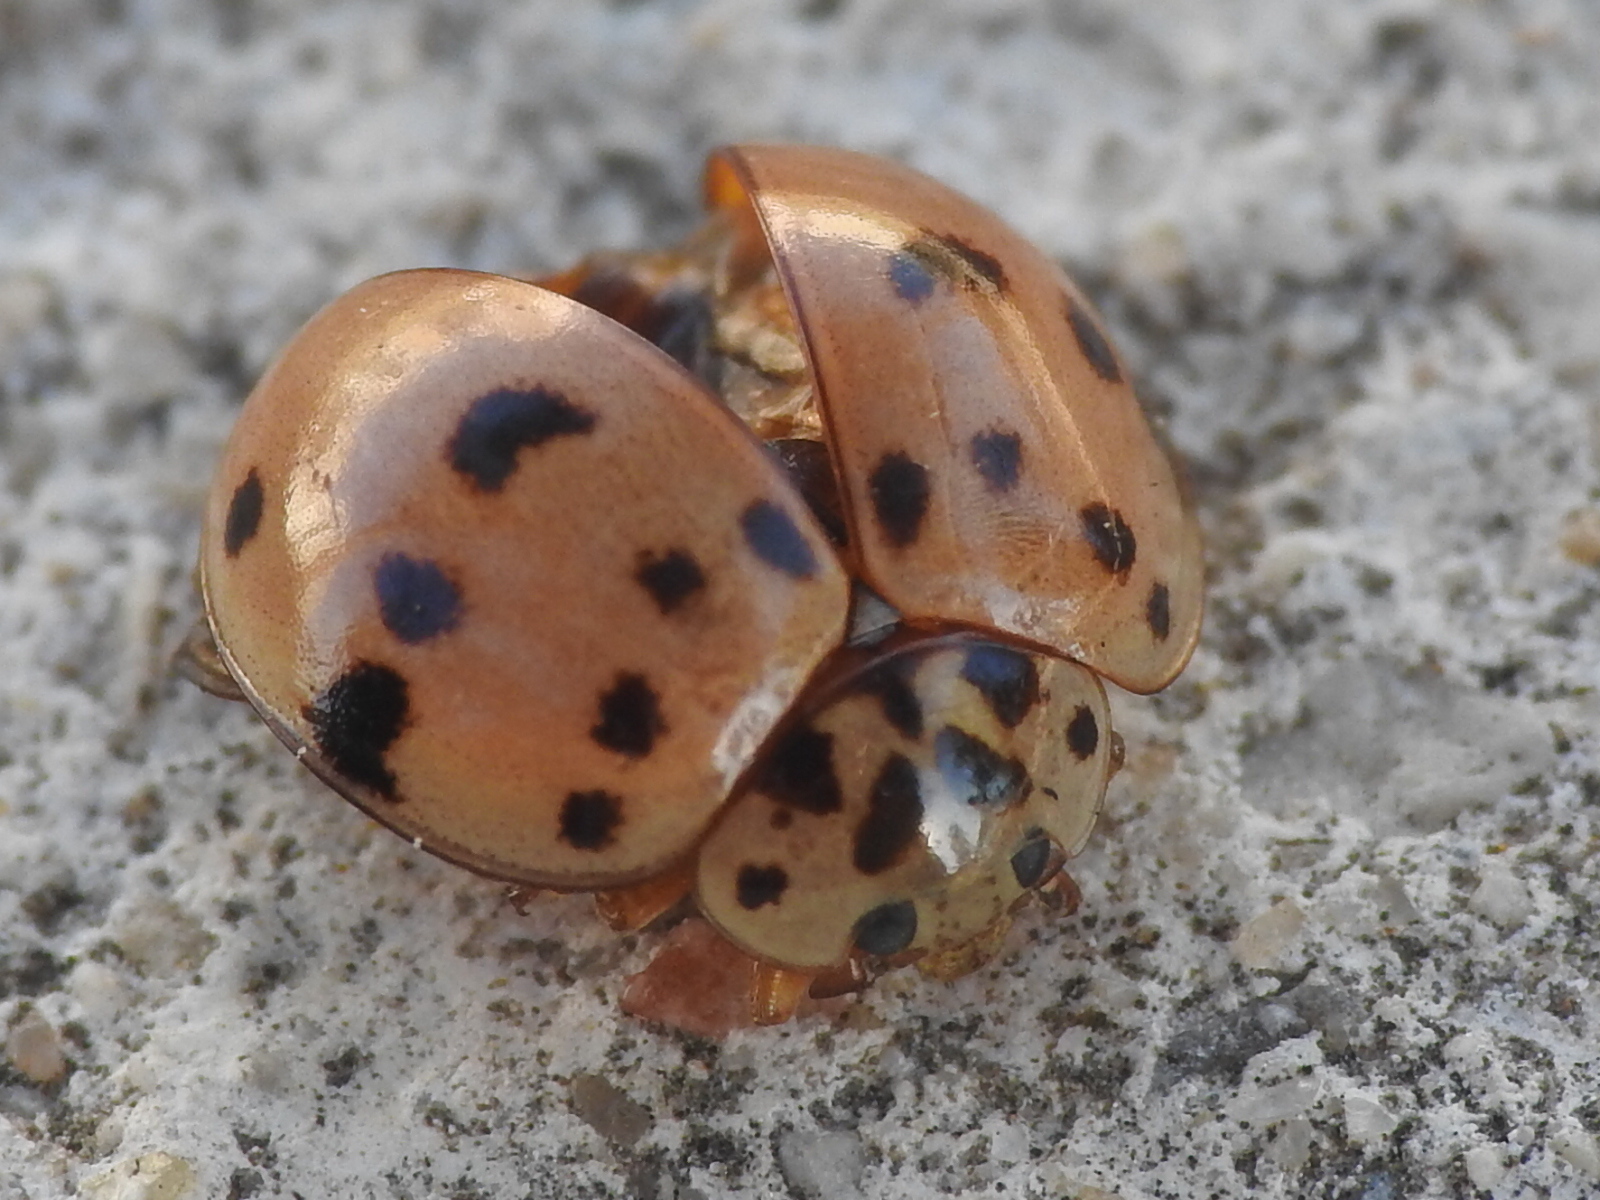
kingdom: Animalia
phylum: Arthropoda
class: Insecta
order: Coleoptera
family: Coccinellidae
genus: Olla
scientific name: Olla v-nigrum
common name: Ashy gray lady beetle
